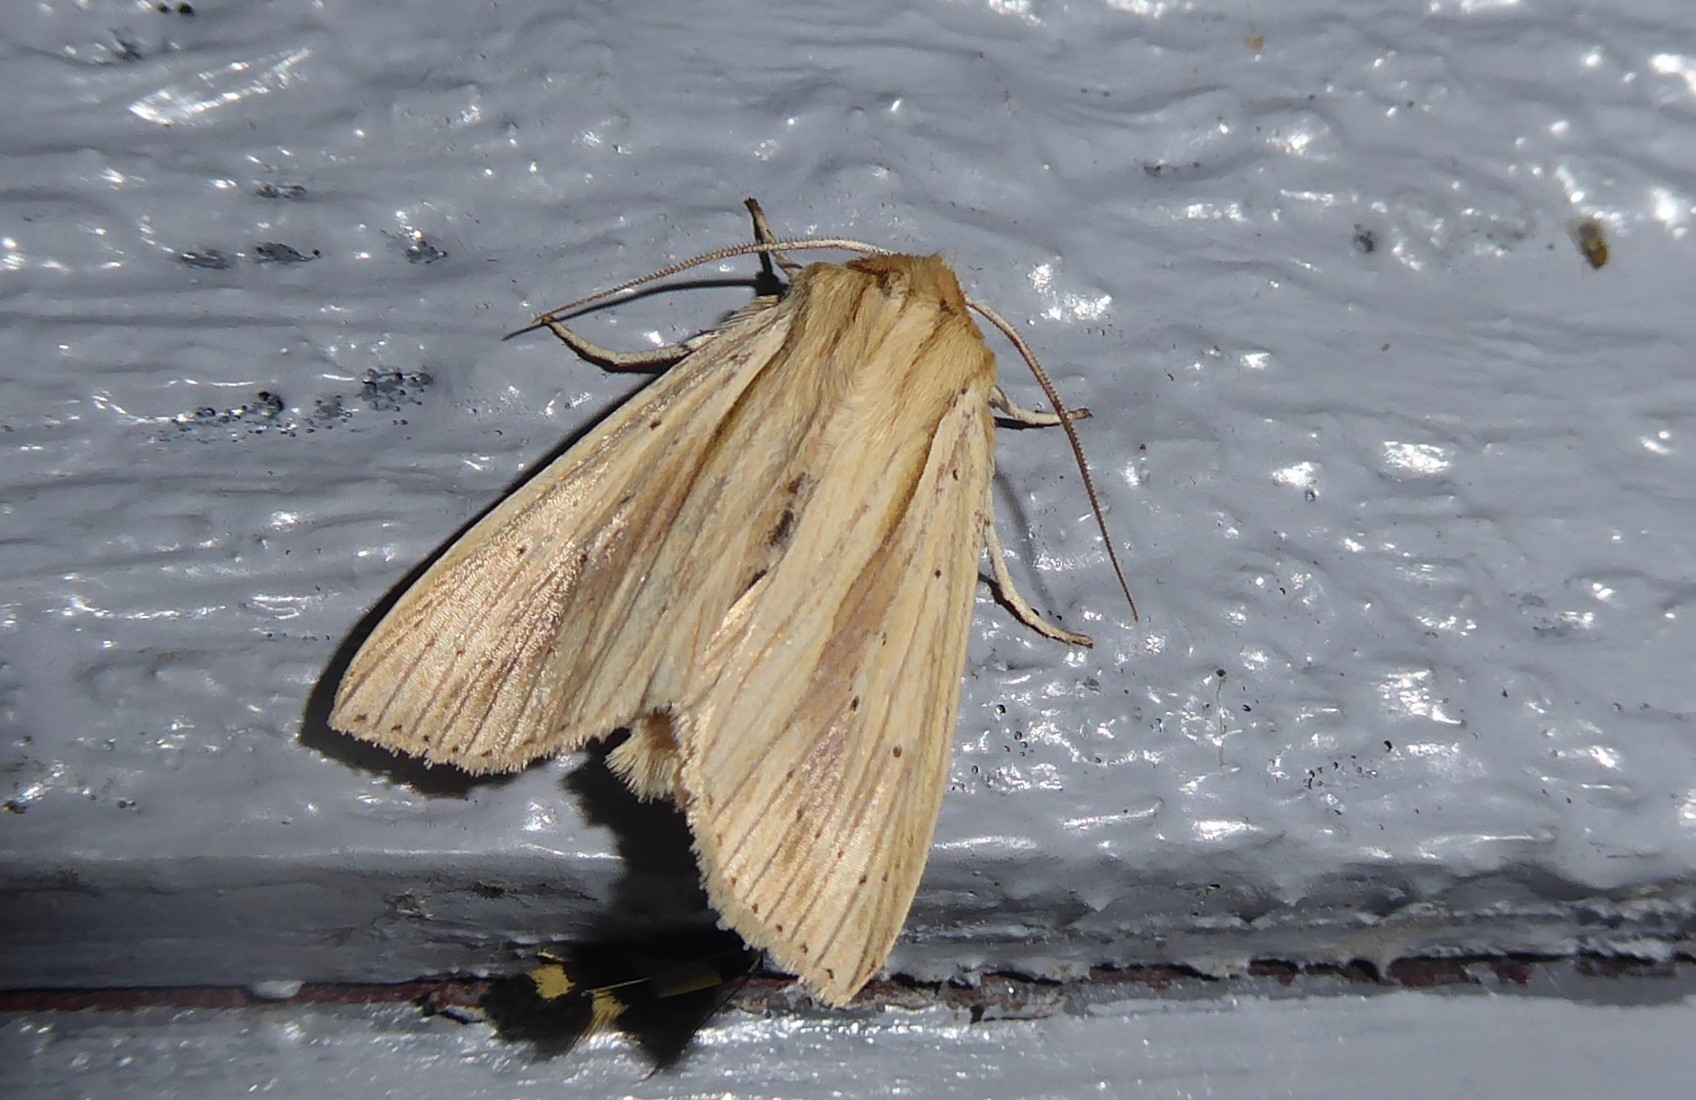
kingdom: Animalia
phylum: Arthropoda
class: Insecta
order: Lepidoptera
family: Noctuidae
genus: Ichneutica
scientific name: Ichneutica semivittata
